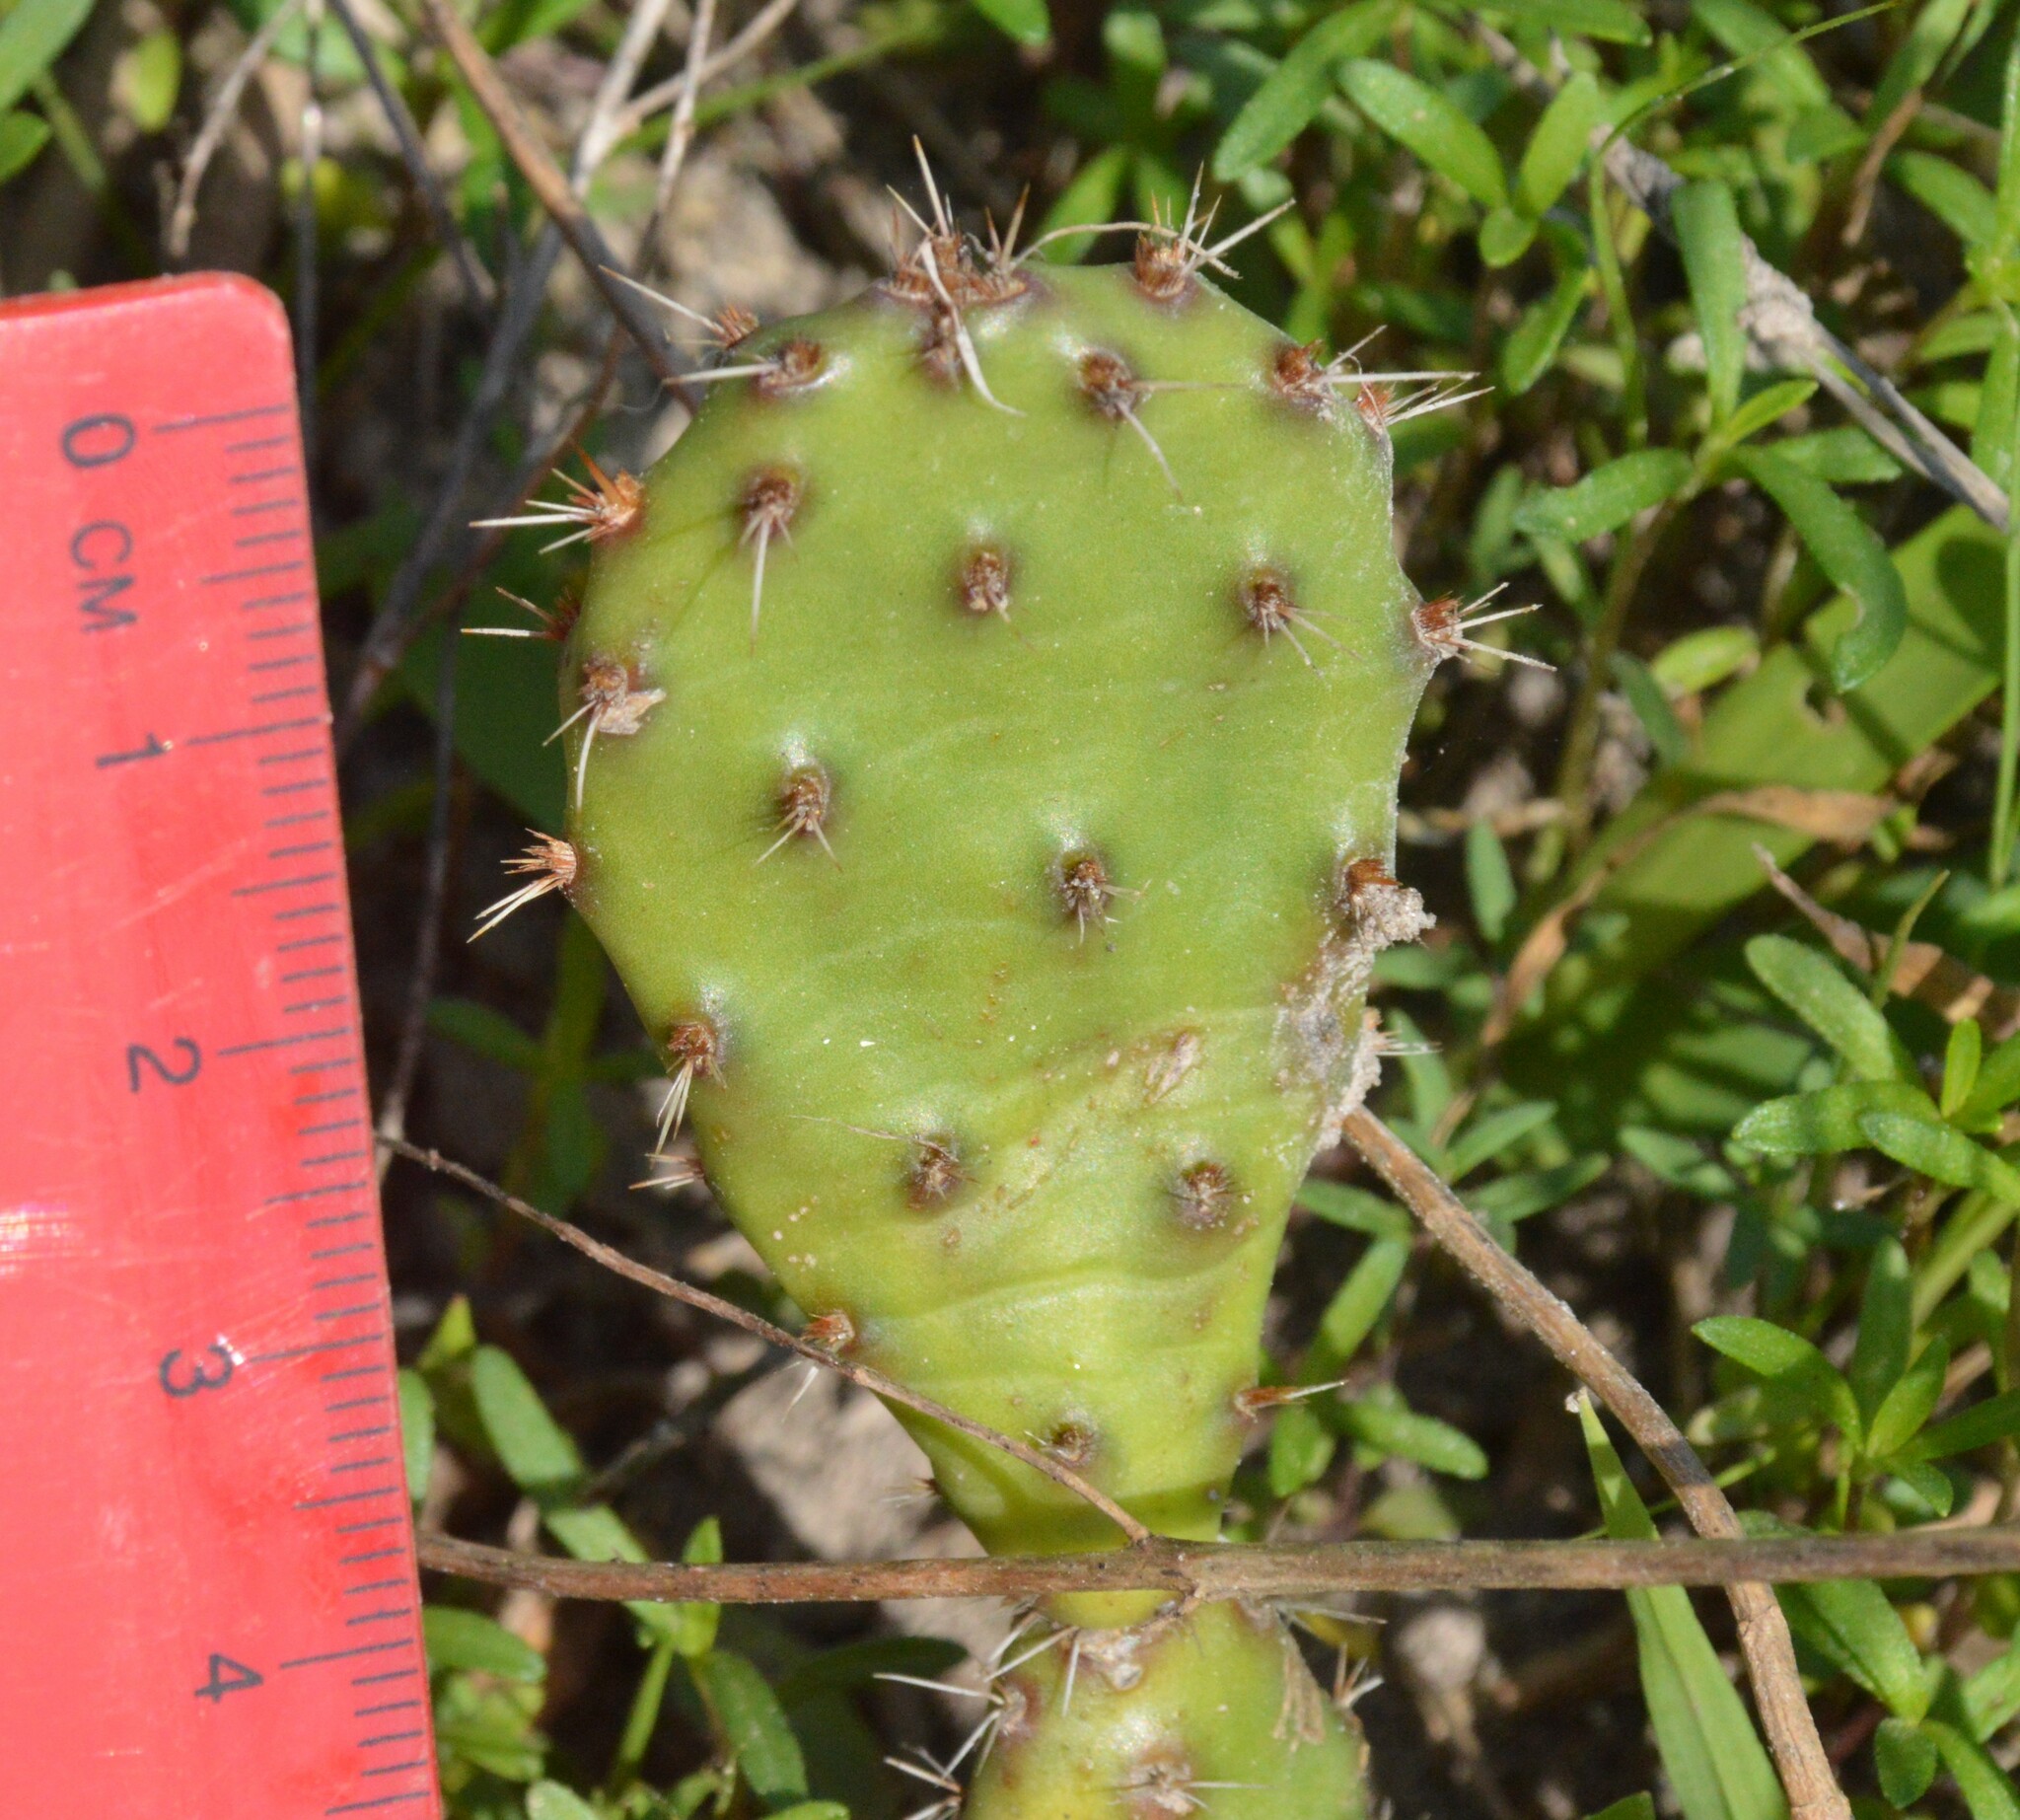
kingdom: Plantae
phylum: Tracheophyta
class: Magnoliopsida
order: Caryophyllales
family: Cactaceae
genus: Opuntia
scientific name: Opuntia macrorhiza
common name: Grassland pricklypear
